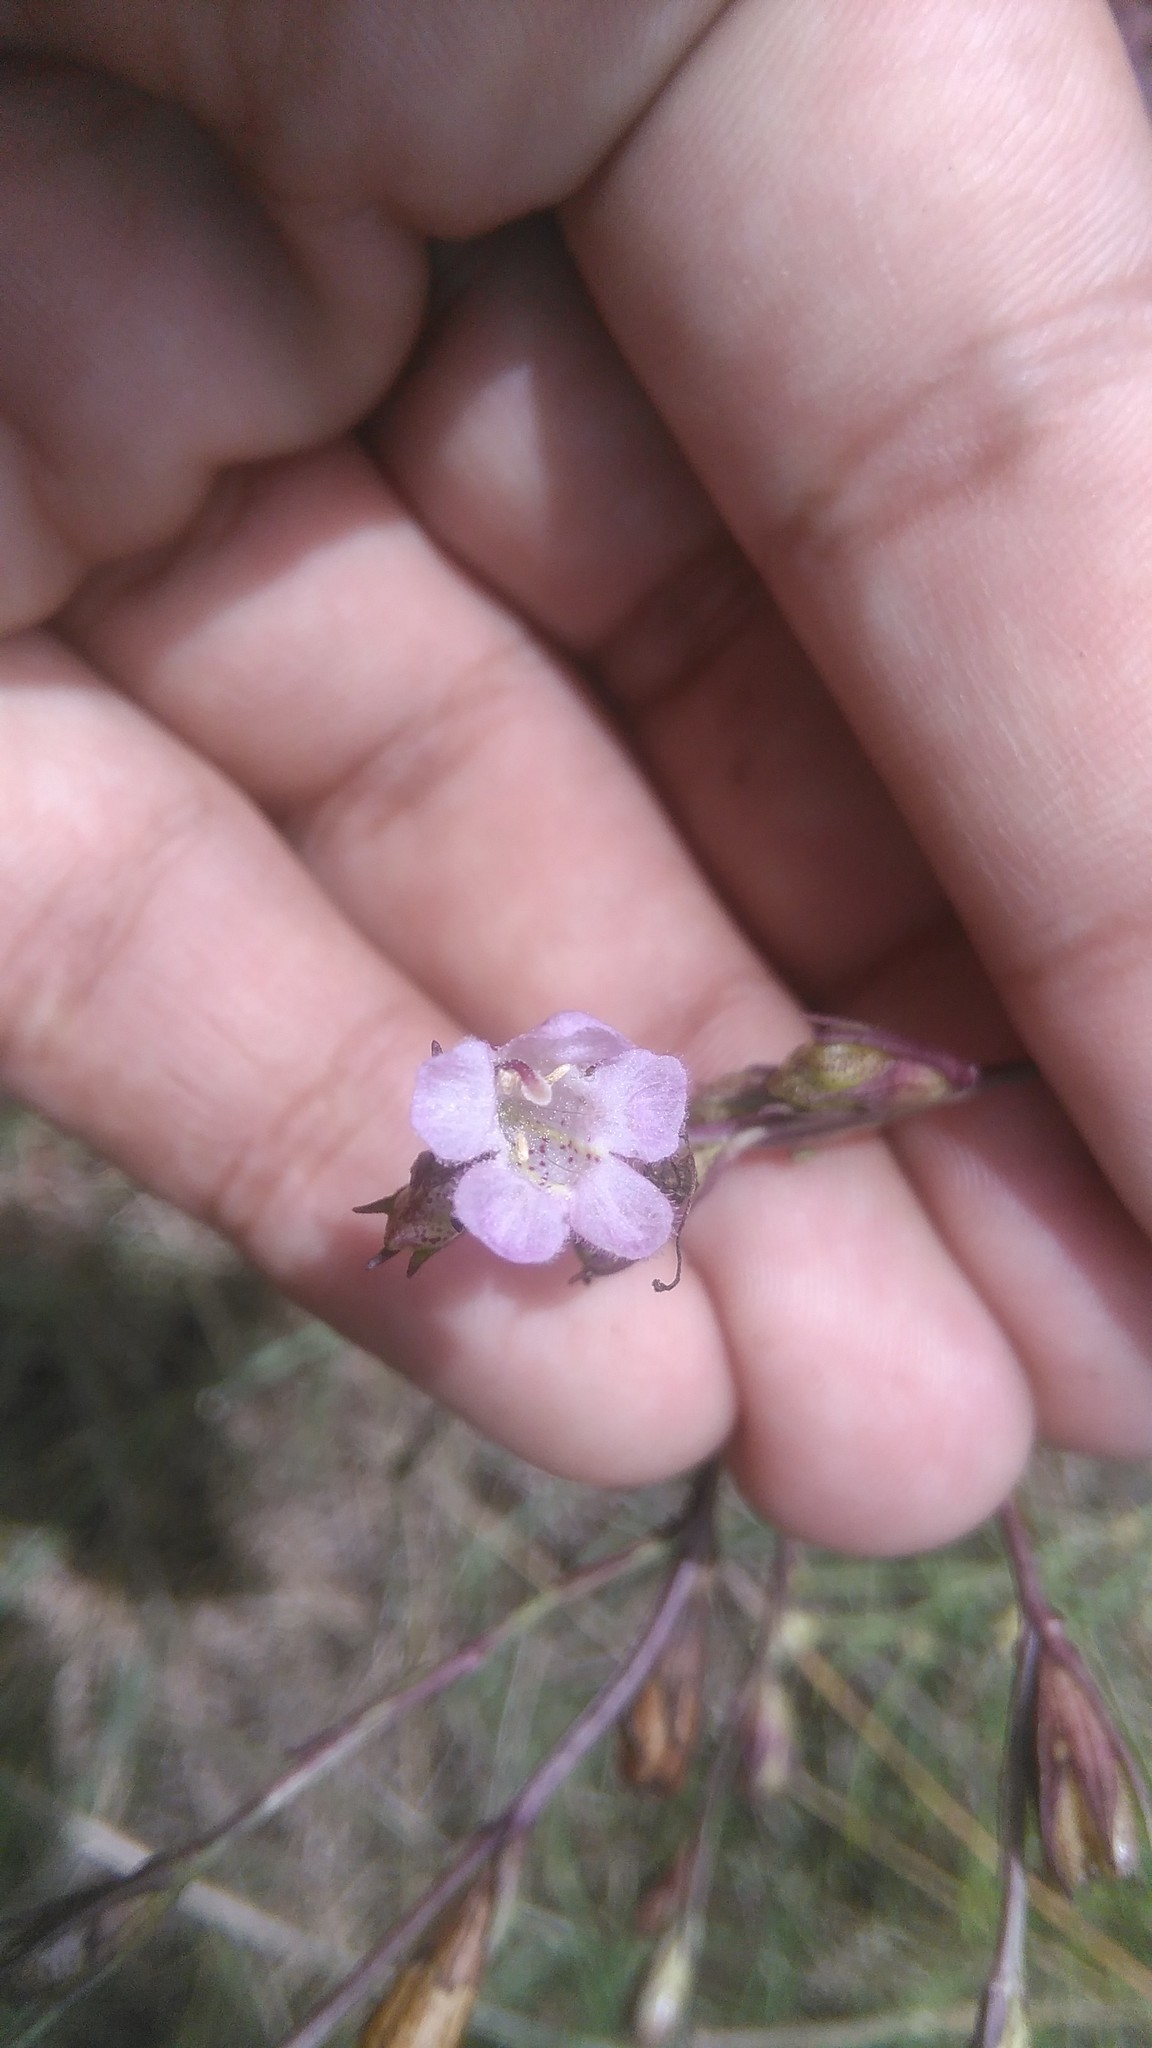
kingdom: Plantae
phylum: Tracheophyta
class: Magnoliopsida
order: Lamiales
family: Orobanchaceae
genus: Agalinis
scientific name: Agalinis communis
